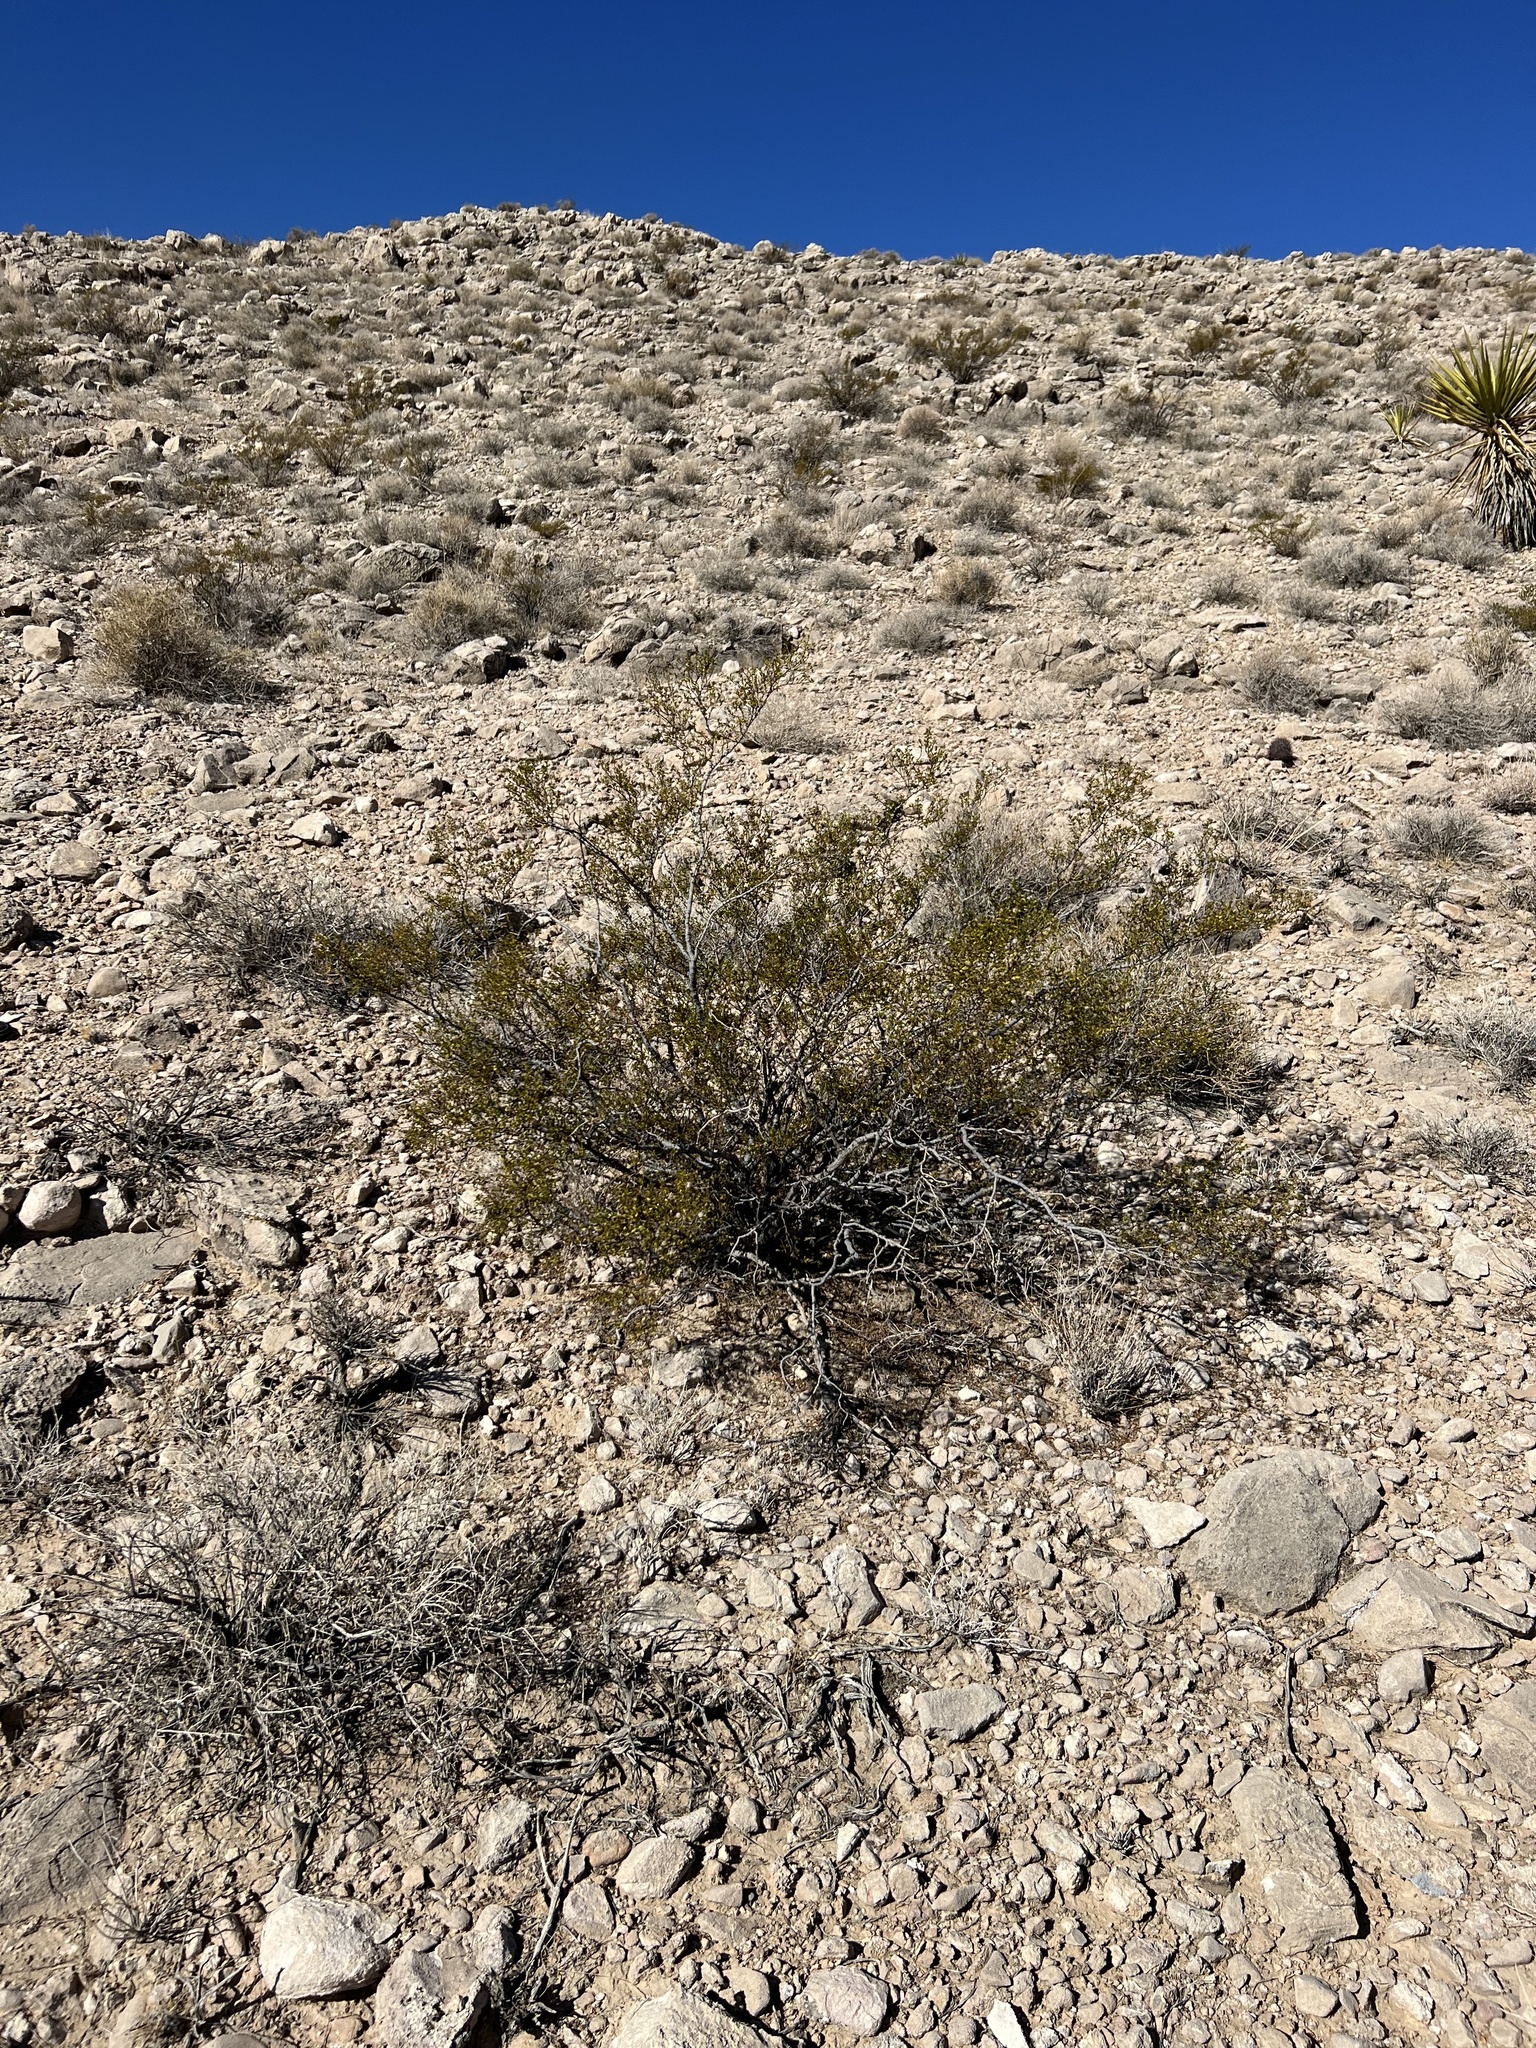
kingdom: Plantae
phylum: Tracheophyta
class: Magnoliopsida
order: Zygophyllales
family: Zygophyllaceae
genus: Larrea
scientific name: Larrea tridentata
